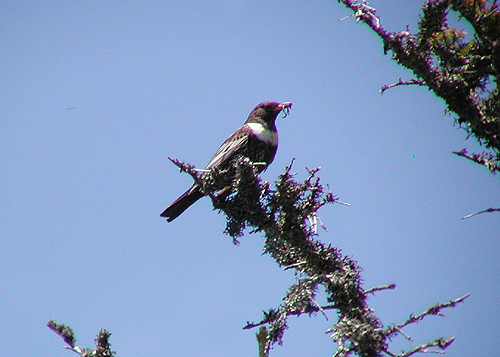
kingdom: Animalia
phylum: Chordata
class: Aves
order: Passeriformes
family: Turdidae
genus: Turdus
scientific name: Turdus torquatus
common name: Ring ouzel
